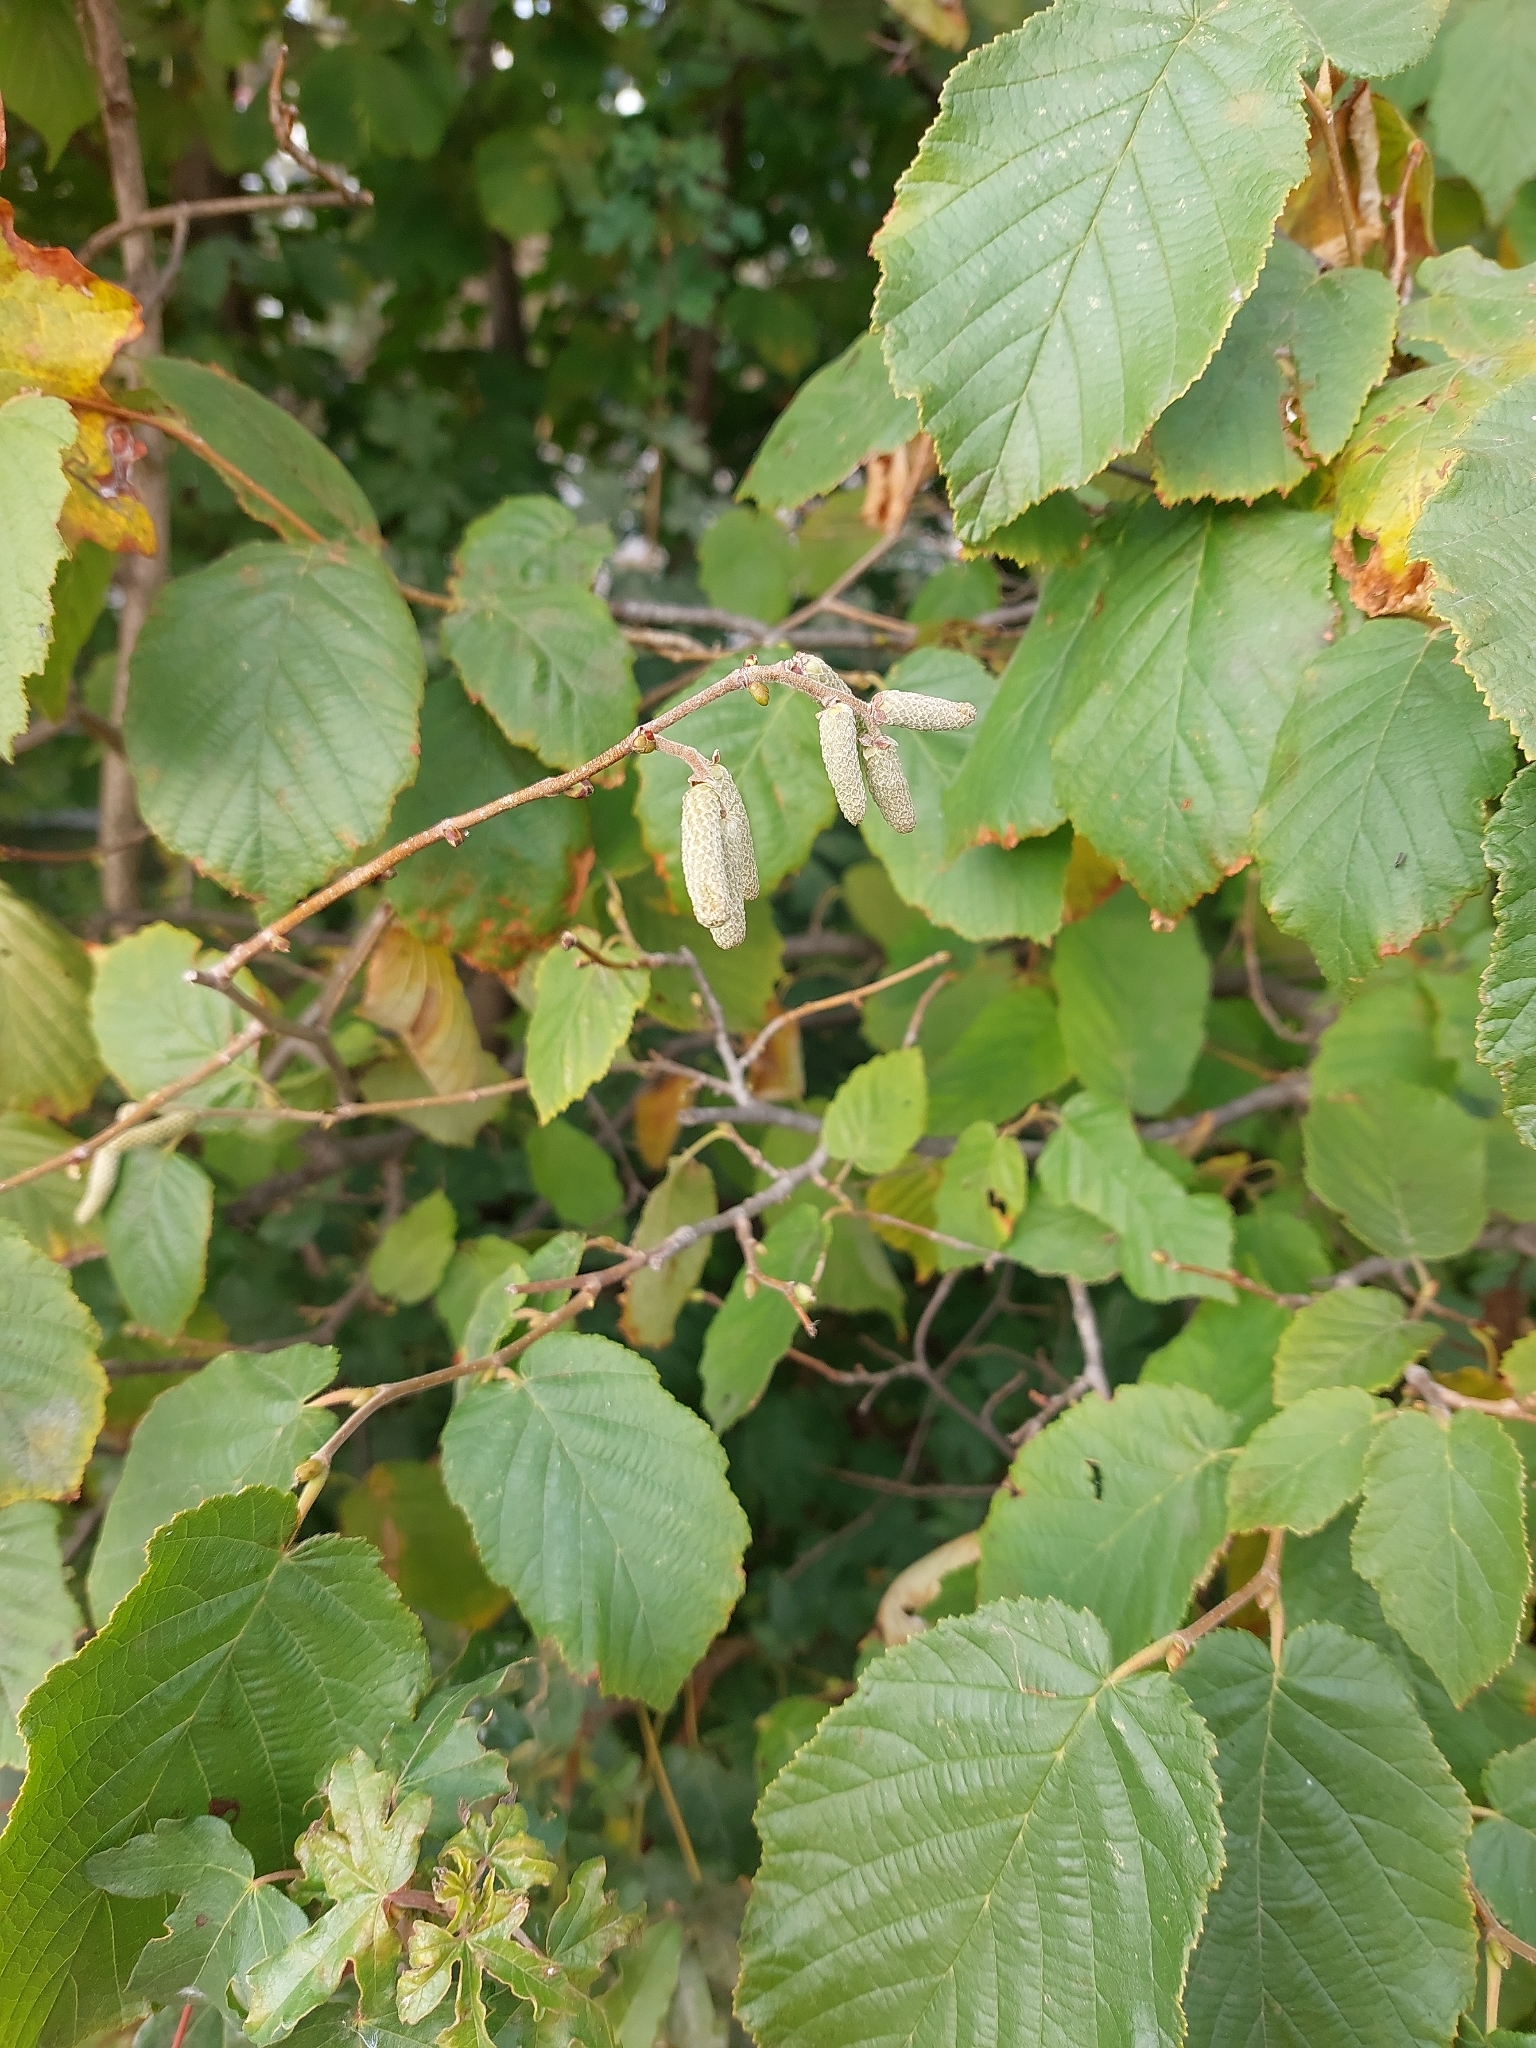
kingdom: Plantae
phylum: Tracheophyta
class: Magnoliopsida
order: Fagales
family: Betulaceae
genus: Corylus
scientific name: Corylus avellana
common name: European hazel
